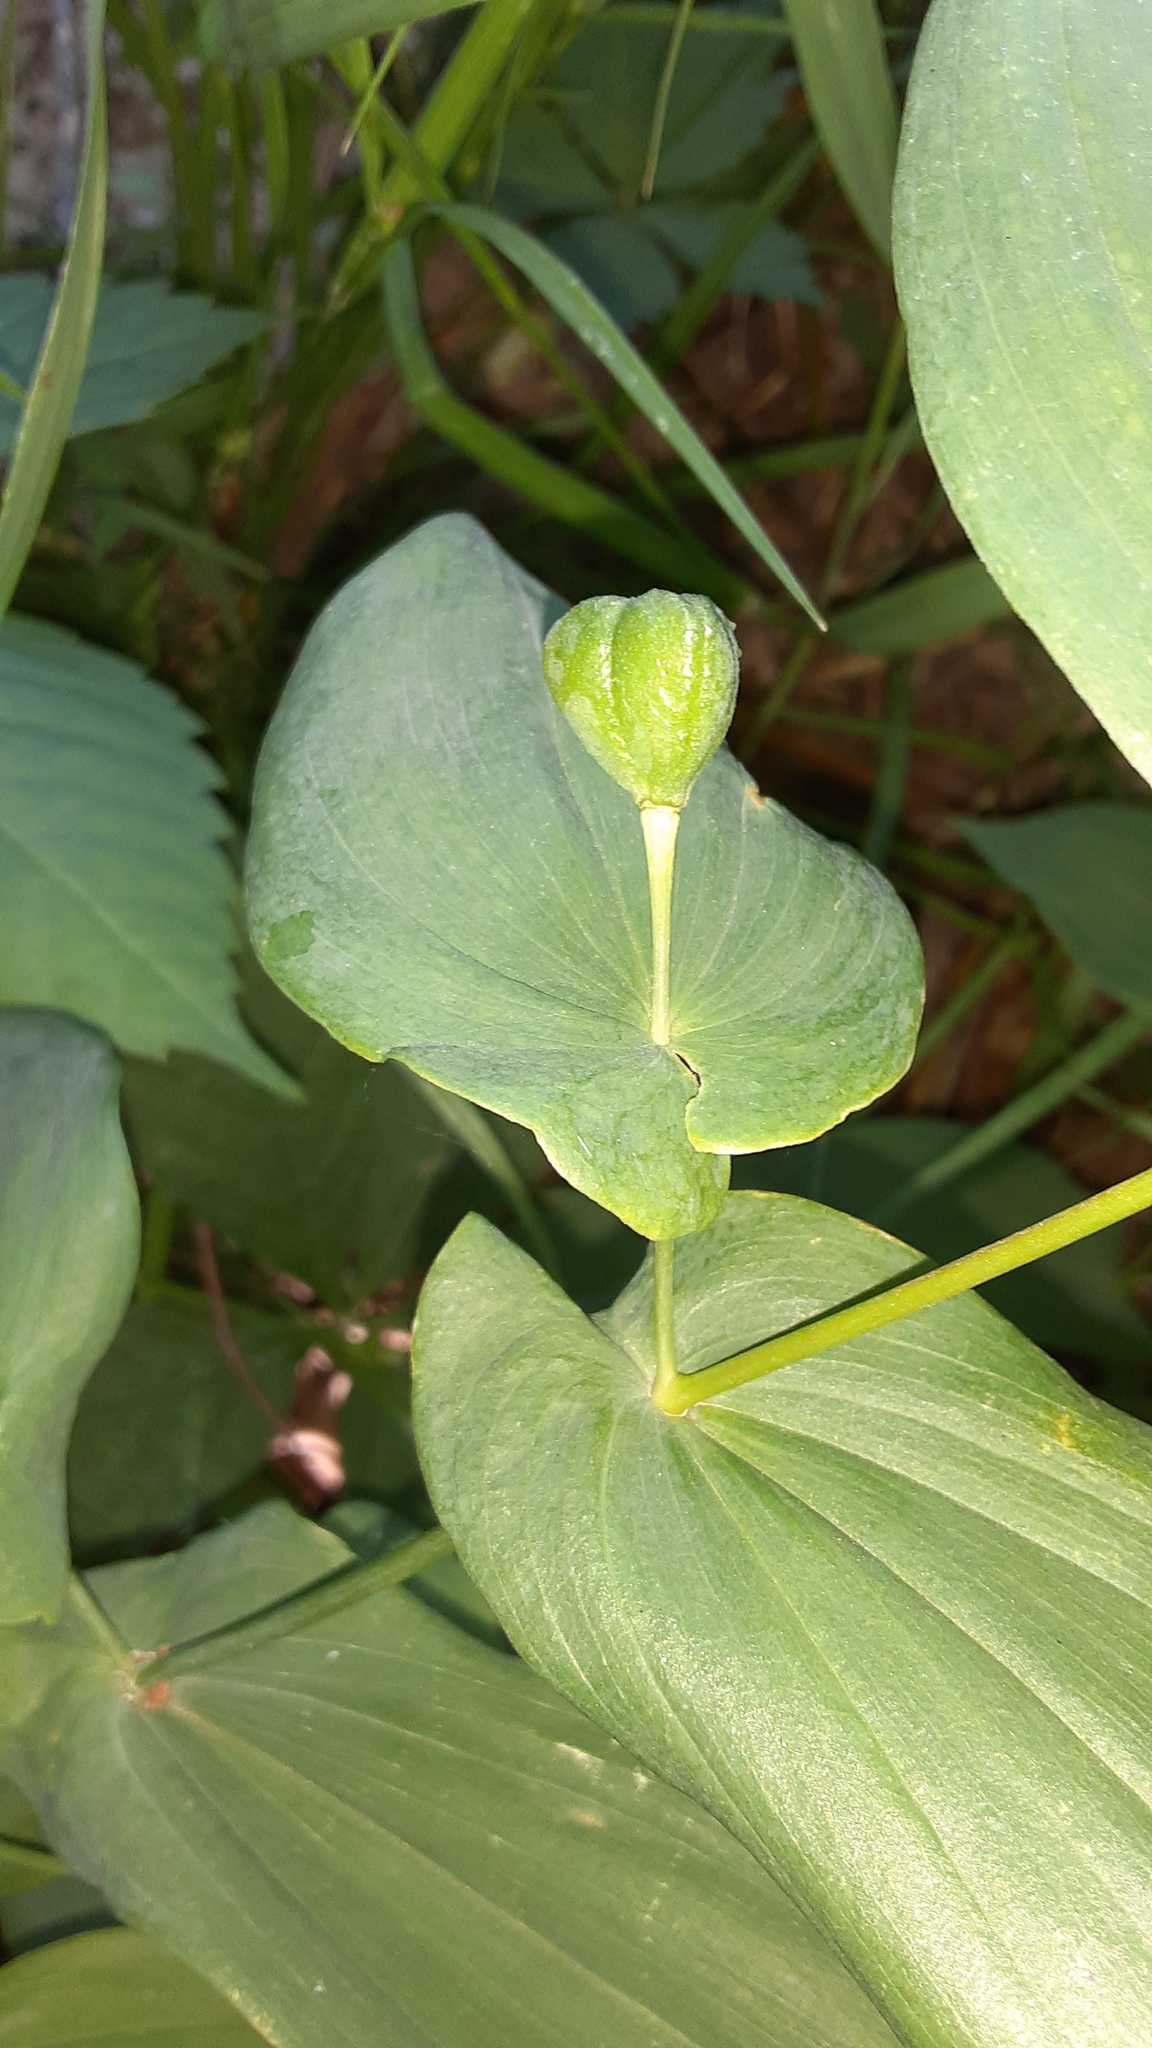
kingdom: Plantae
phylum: Tracheophyta
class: Liliopsida
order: Liliales
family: Colchicaceae
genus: Uvularia
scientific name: Uvularia grandiflora
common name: Bellwort
